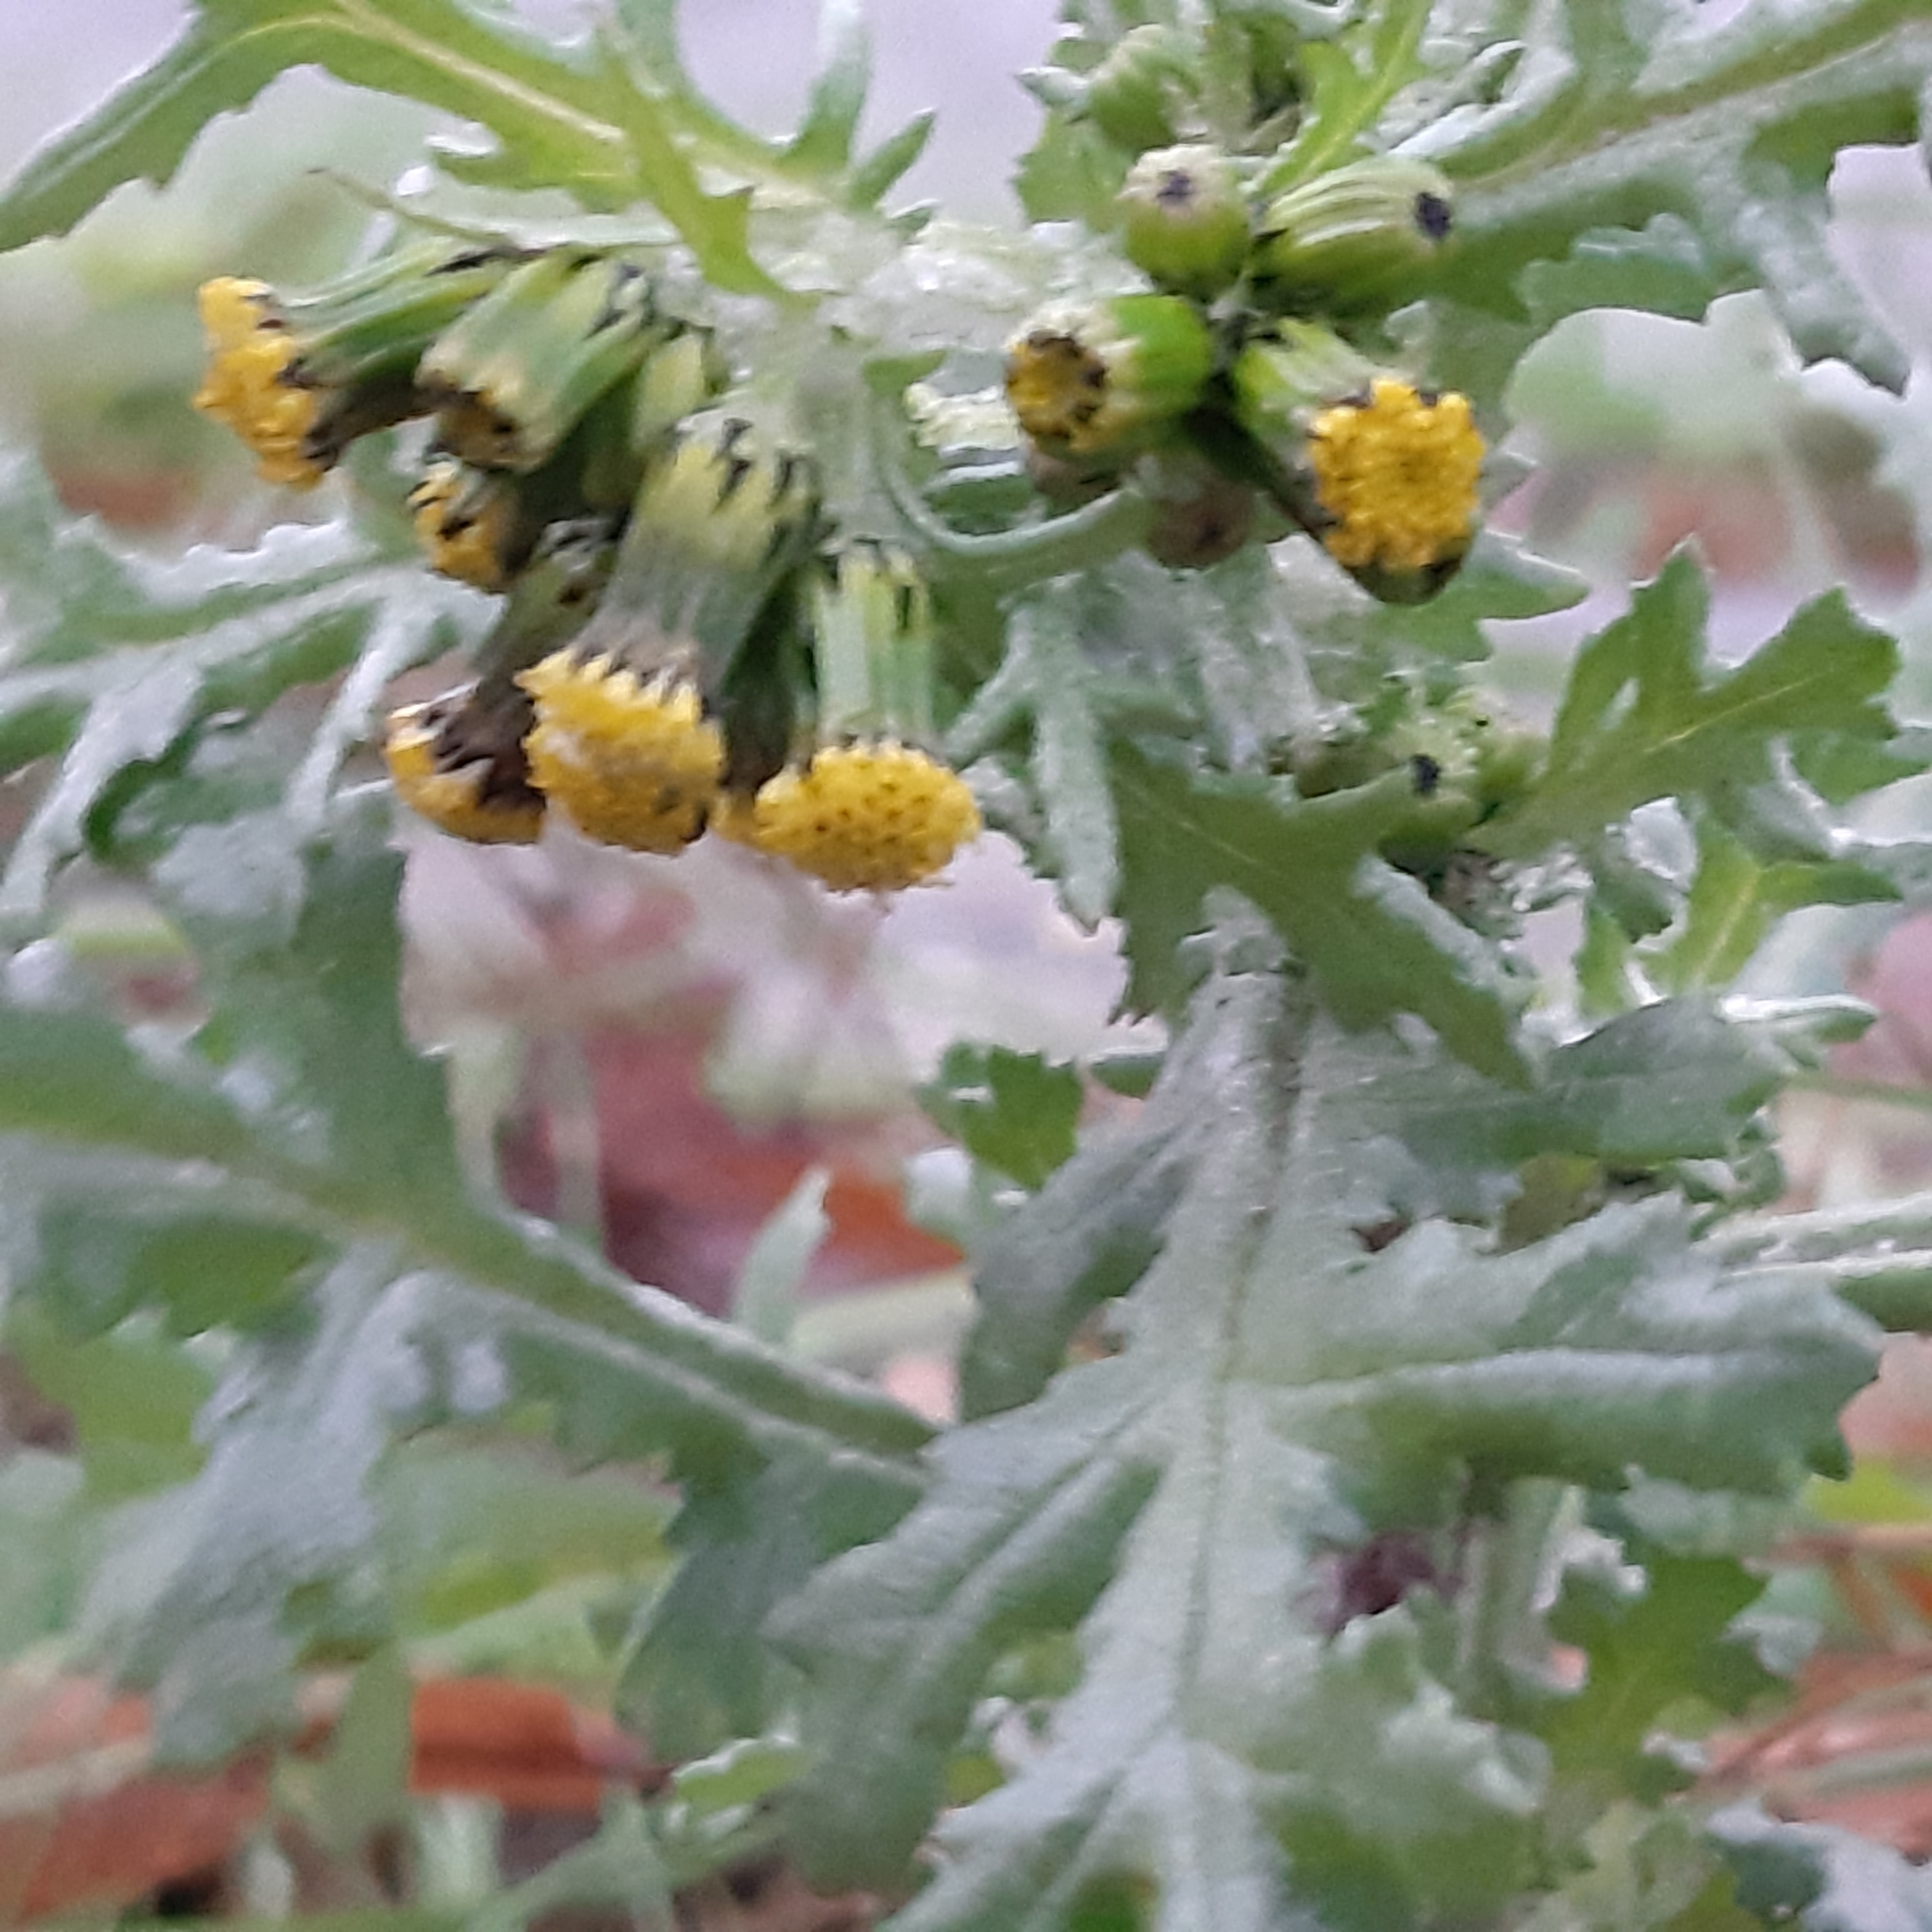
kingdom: Plantae
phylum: Tracheophyta
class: Magnoliopsida
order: Asterales
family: Asteraceae
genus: Senecio
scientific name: Senecio vulgaris
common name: Old-man-in-the-spring
